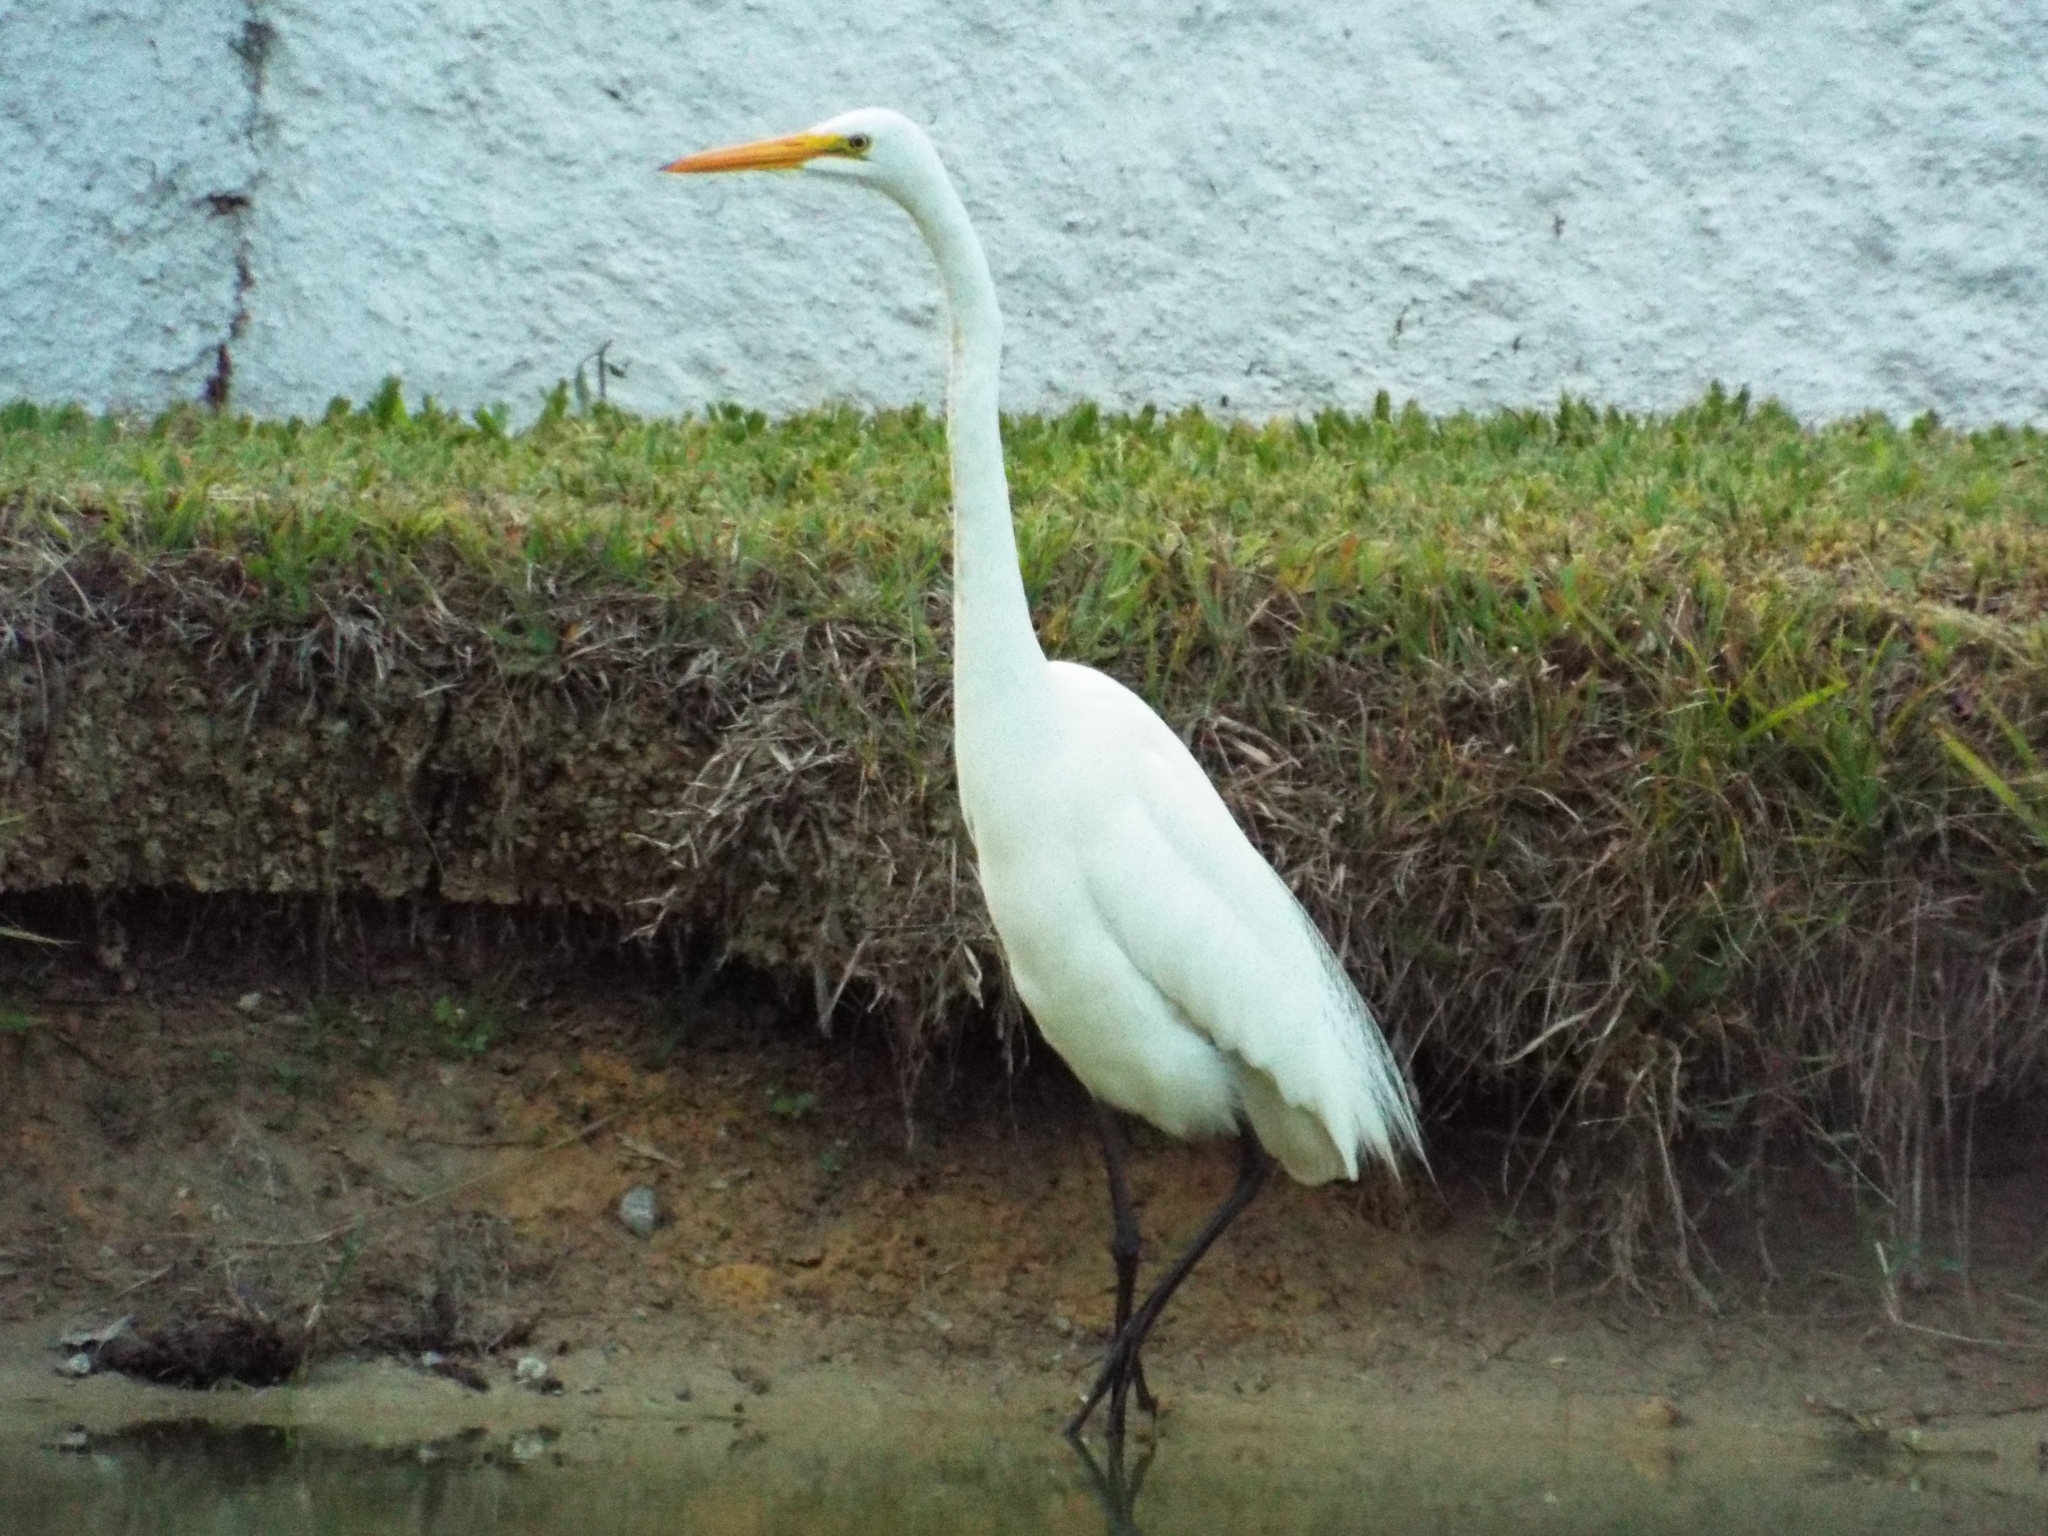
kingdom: Animalia
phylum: Chordata
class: Aves
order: Pelecaniformes
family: Ardeidae
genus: Ardea
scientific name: Ardea alba
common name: Great egret
